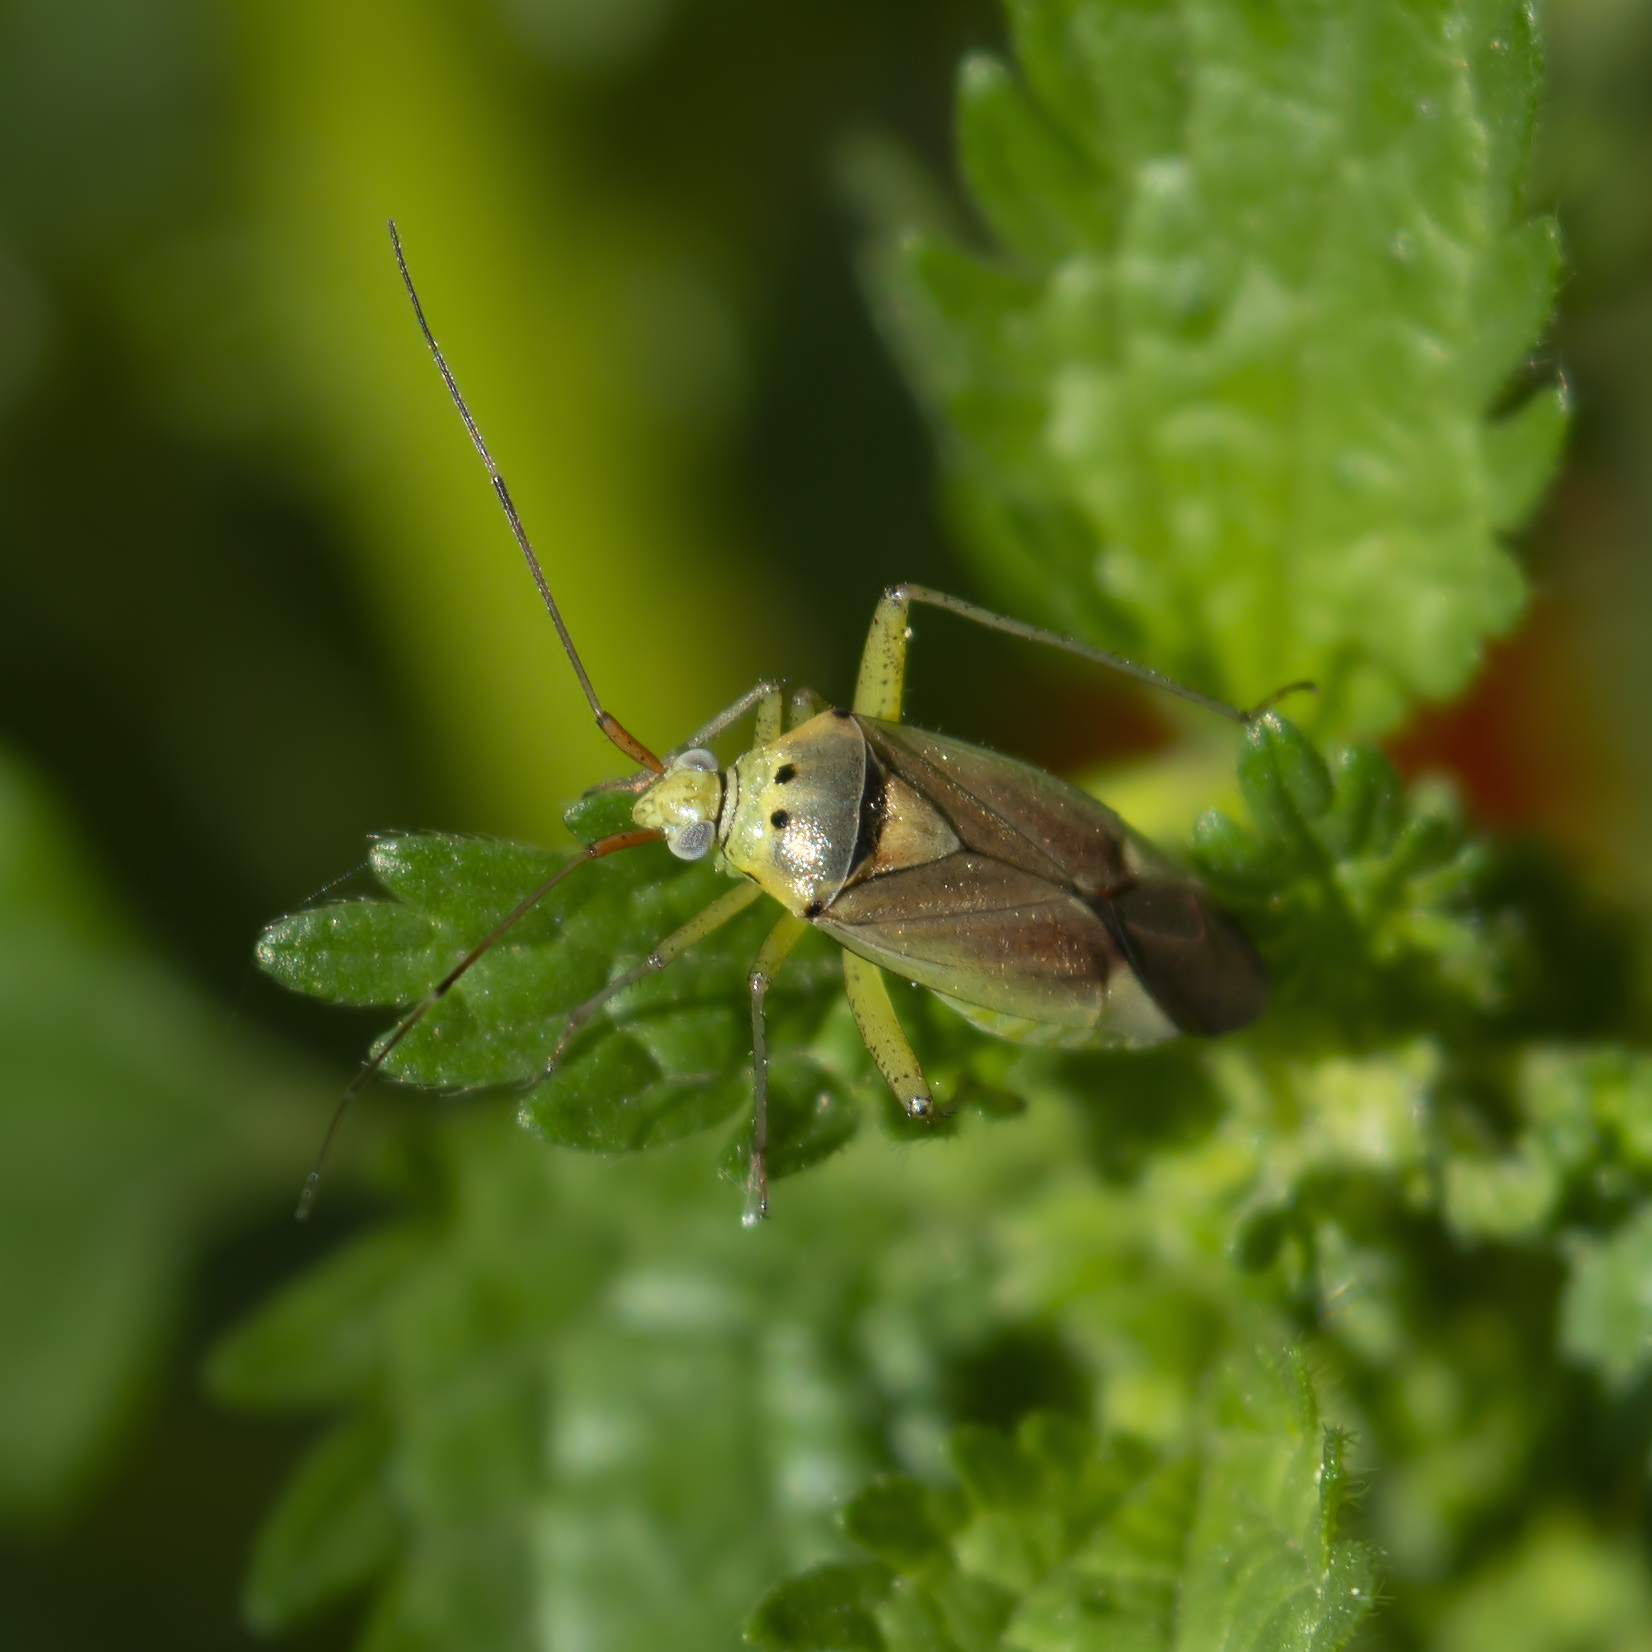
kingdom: Animalia
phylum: Arthropoda
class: Insecta
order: Hemiptera
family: Miridae
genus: Closterotomus
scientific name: Closterotomus trivialis
